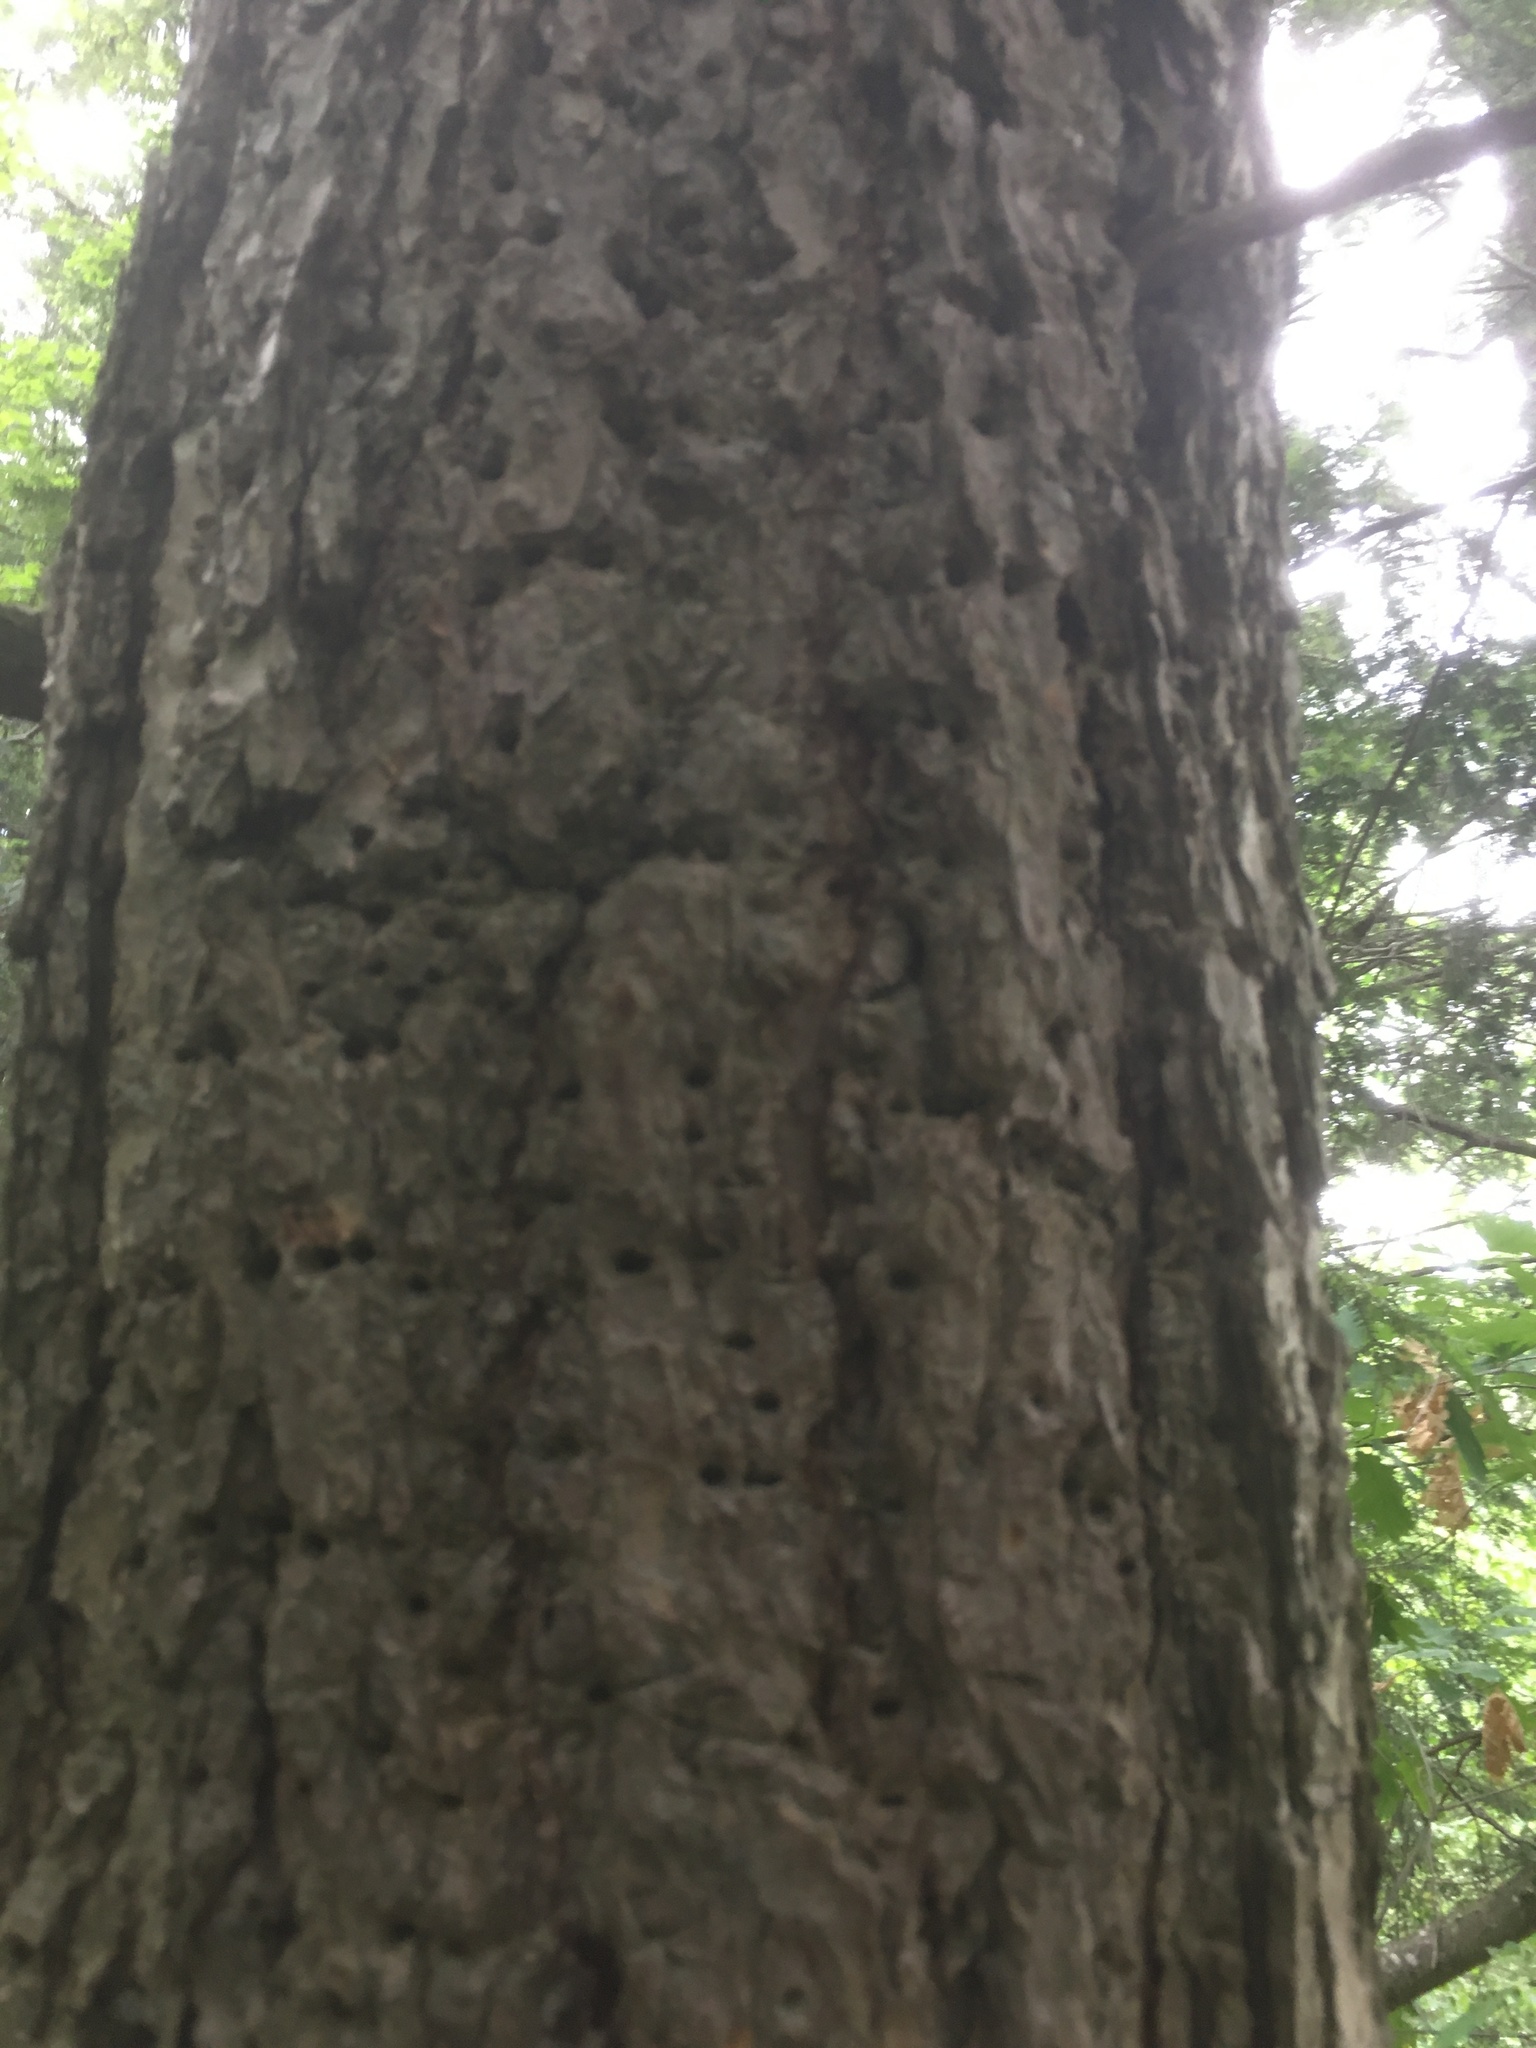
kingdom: Animalia
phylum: Chordata
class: Aves
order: Piciformes
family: Picidae
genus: Sphyrapicus
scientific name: Sphyrapicus varius
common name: Yellow-bellied sapsucker
